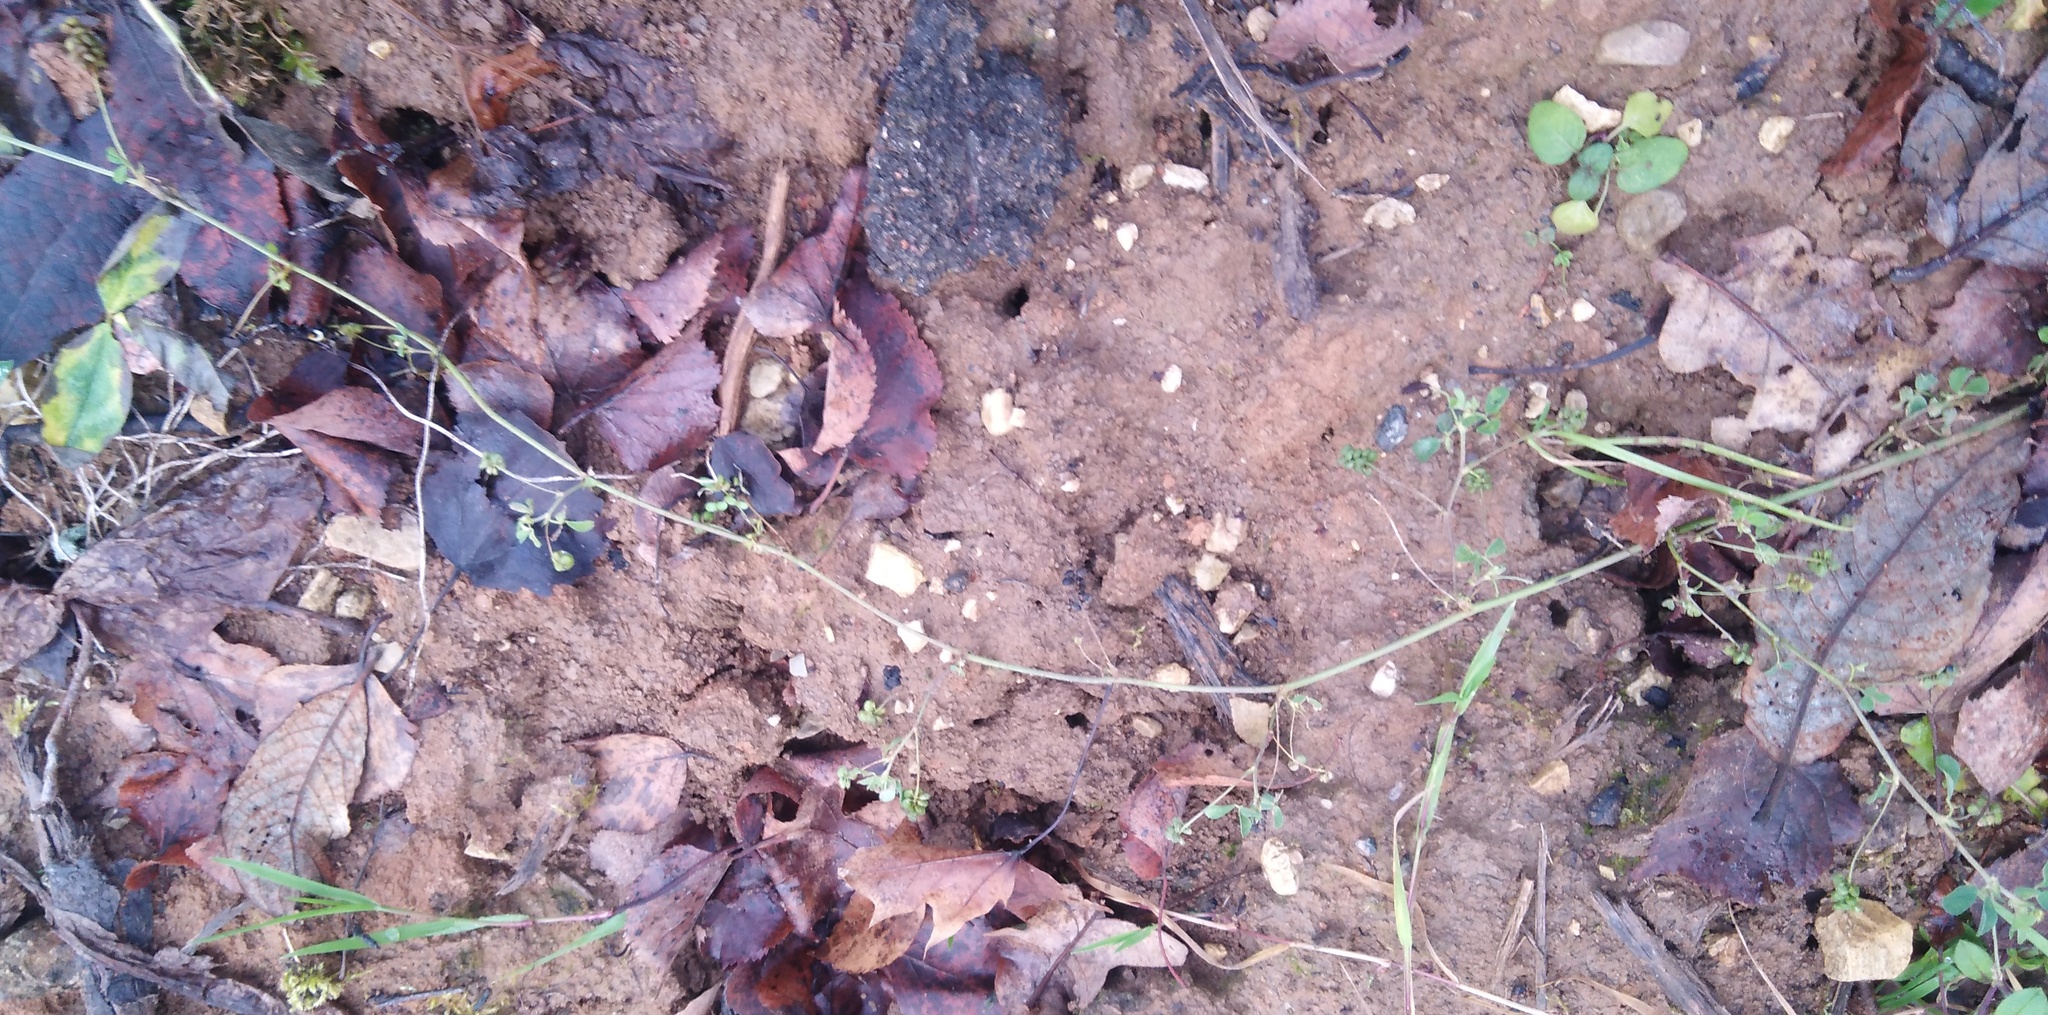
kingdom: Plantae
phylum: Tracheophyta
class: Magnoliopsida
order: Fabales
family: Fabaceae
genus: Medicago
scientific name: Medicago lupulina
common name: Black medick
